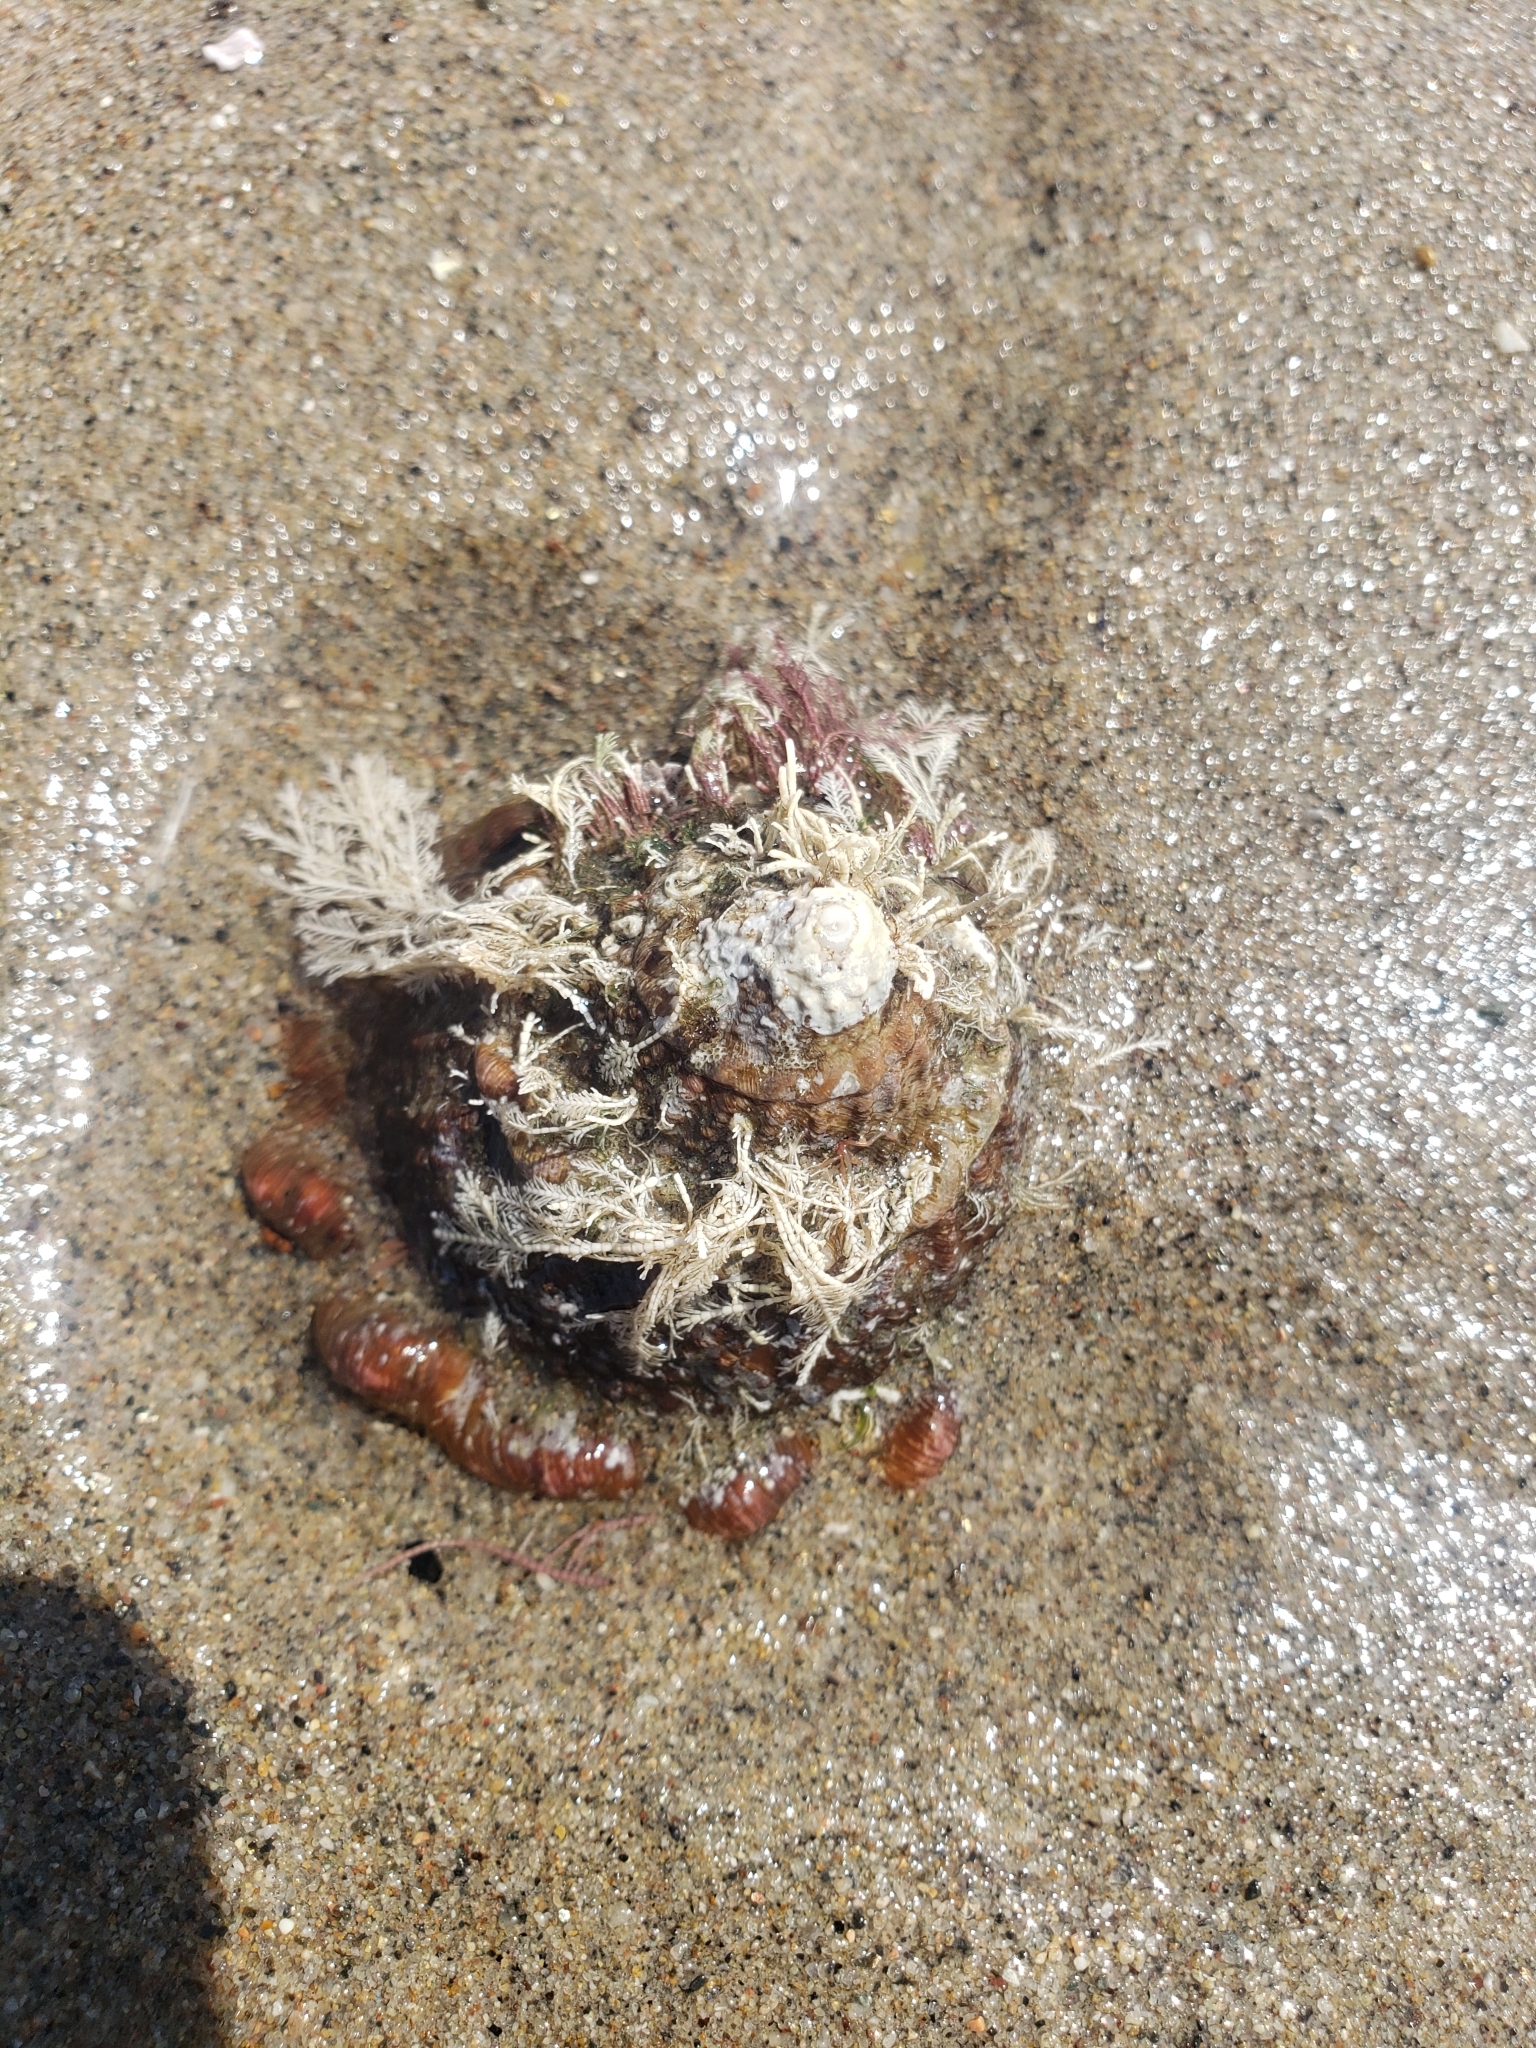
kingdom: Animalia
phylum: Mollusca
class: Gastropoda
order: Trochida
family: Turbinidae
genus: Megastraea
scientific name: Megastraea undosa
